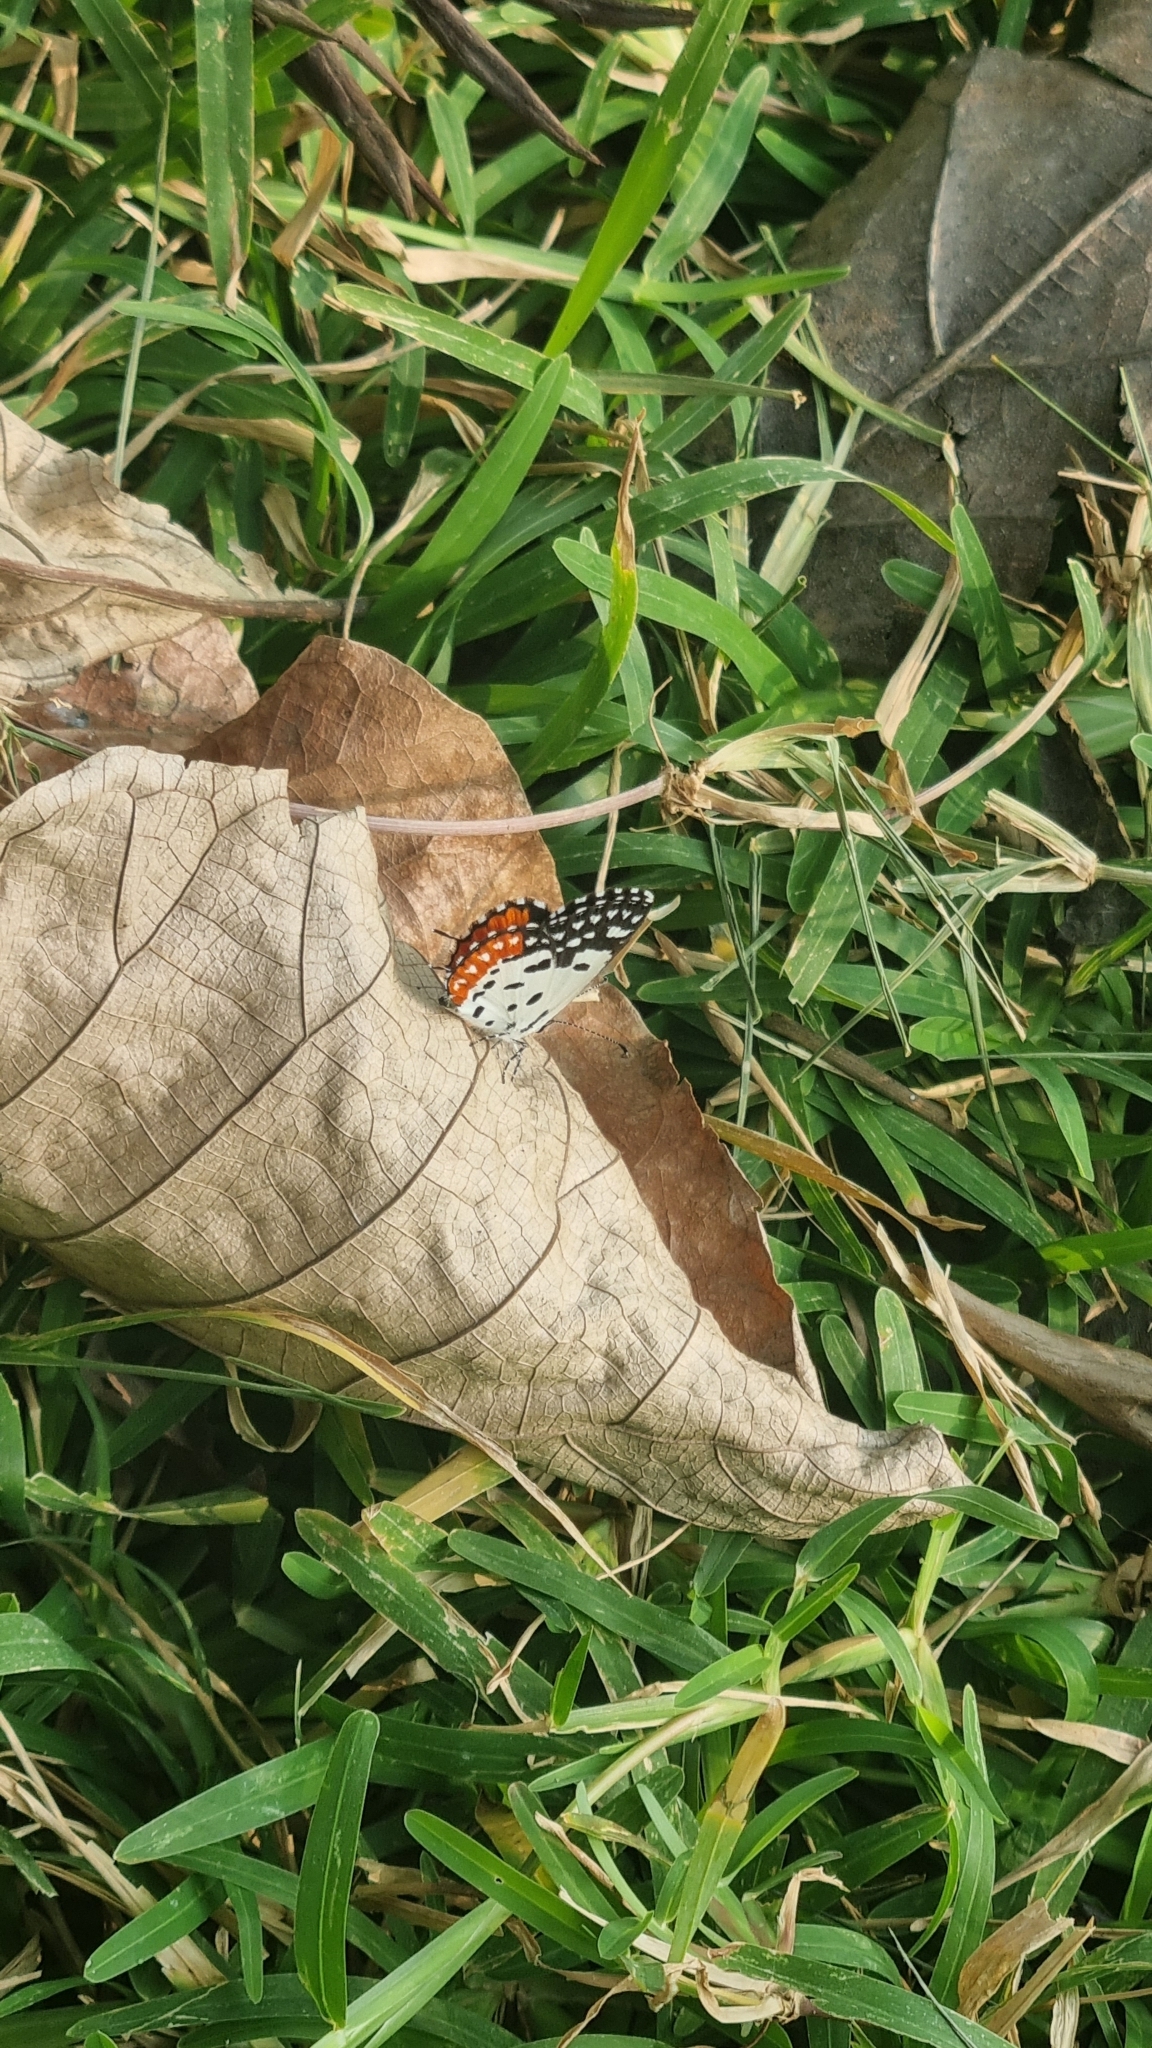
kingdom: Animalia
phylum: Arthropoda
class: Insecta
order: Lepidoptera
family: Lycaenidae
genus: Talicada
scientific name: Talicada nyseus
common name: Red pierrot
